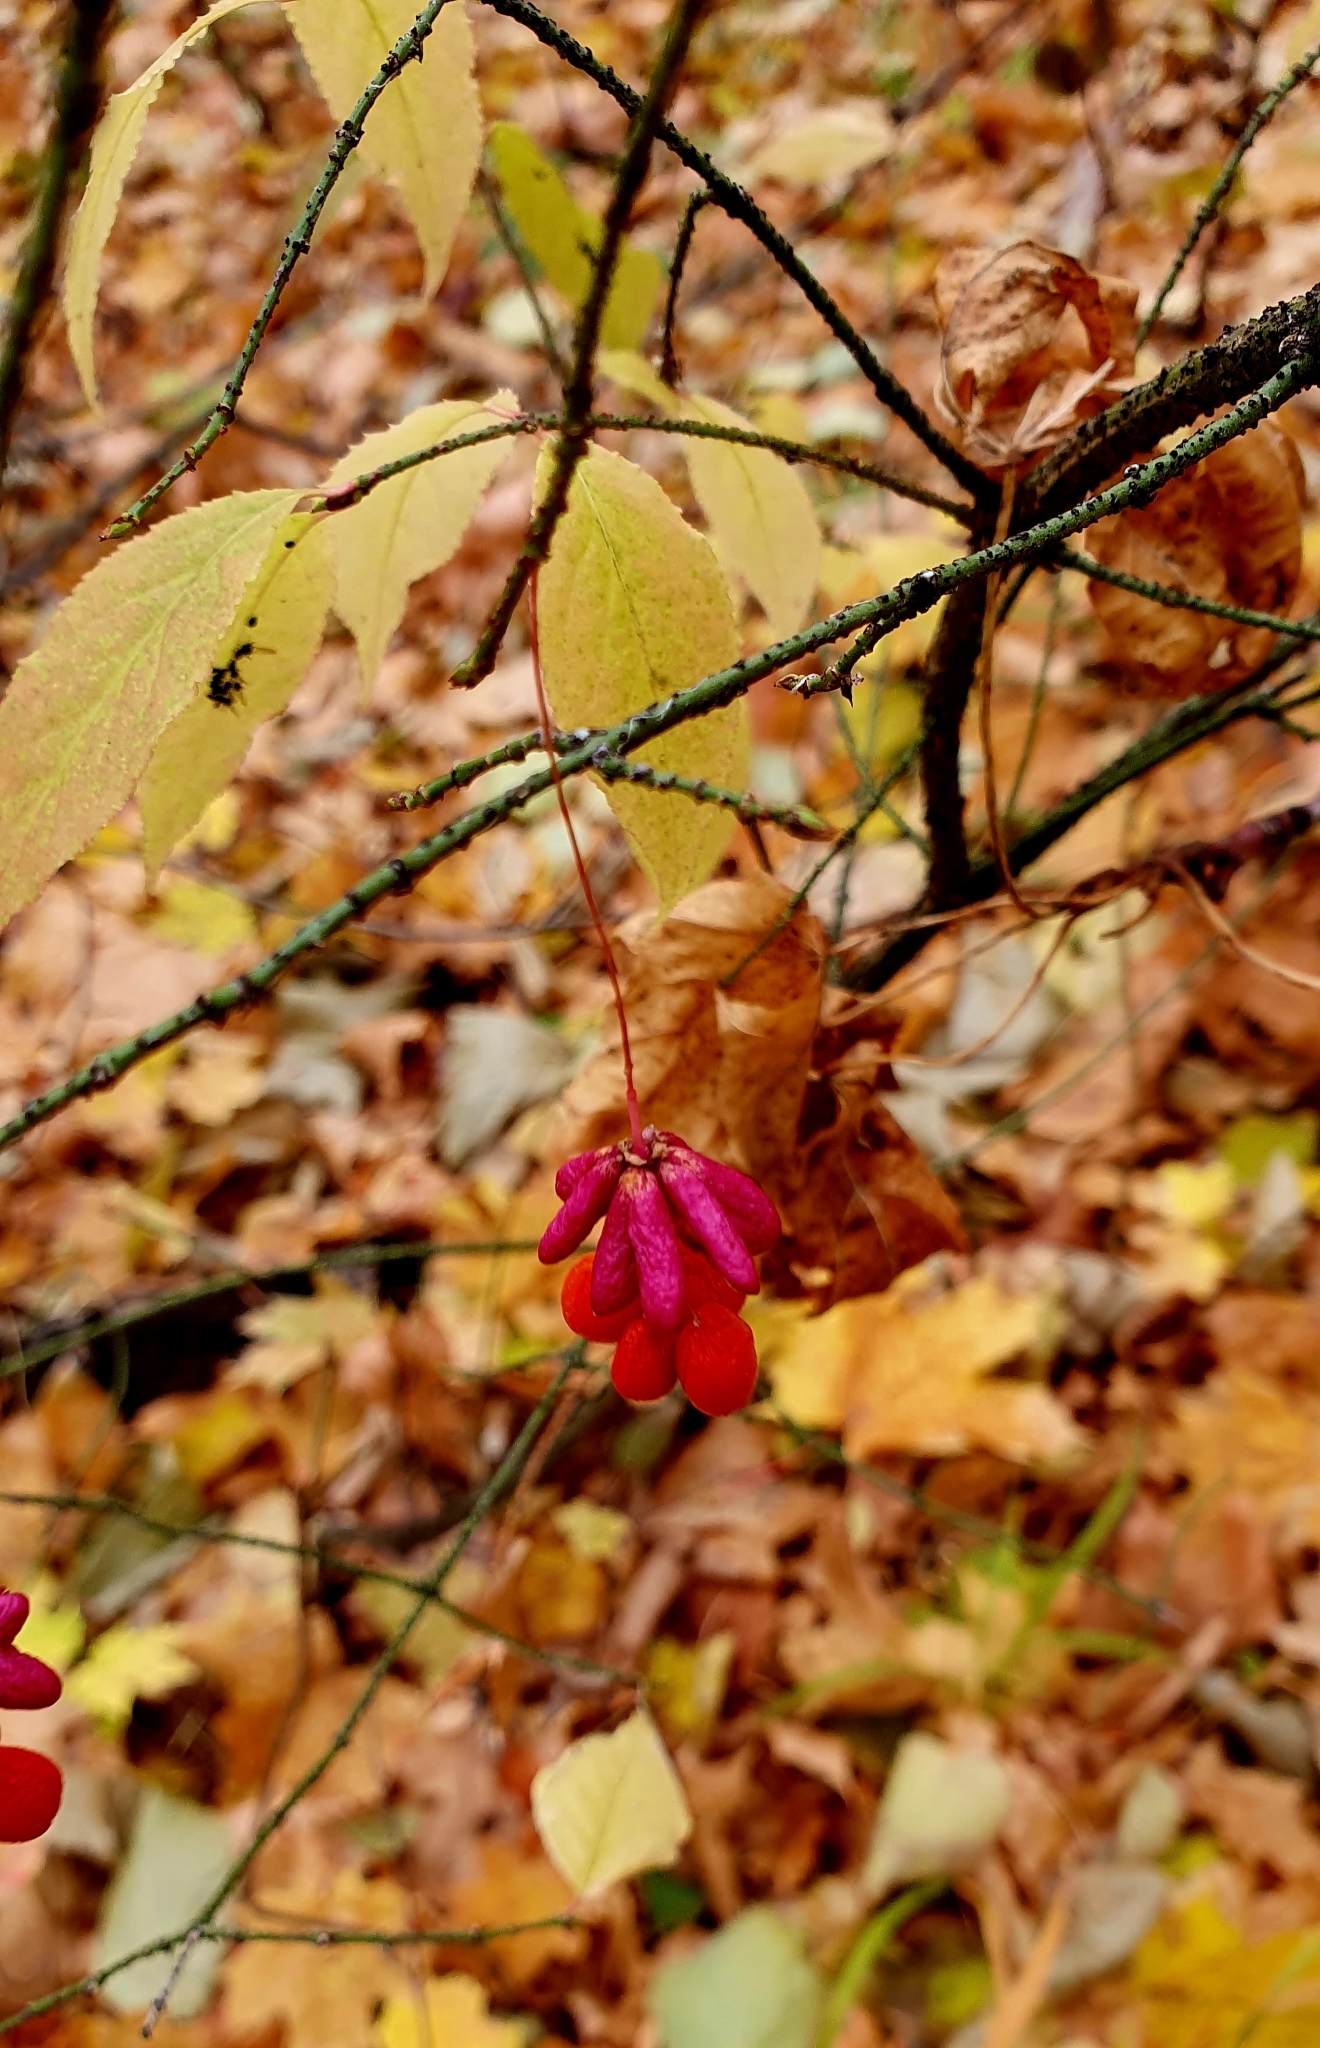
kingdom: Plantae
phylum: Tracheophyta
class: Magnoliopsida
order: Celastrales
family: Celastraceae
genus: Euonymus
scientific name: Euonymus verrucosus
